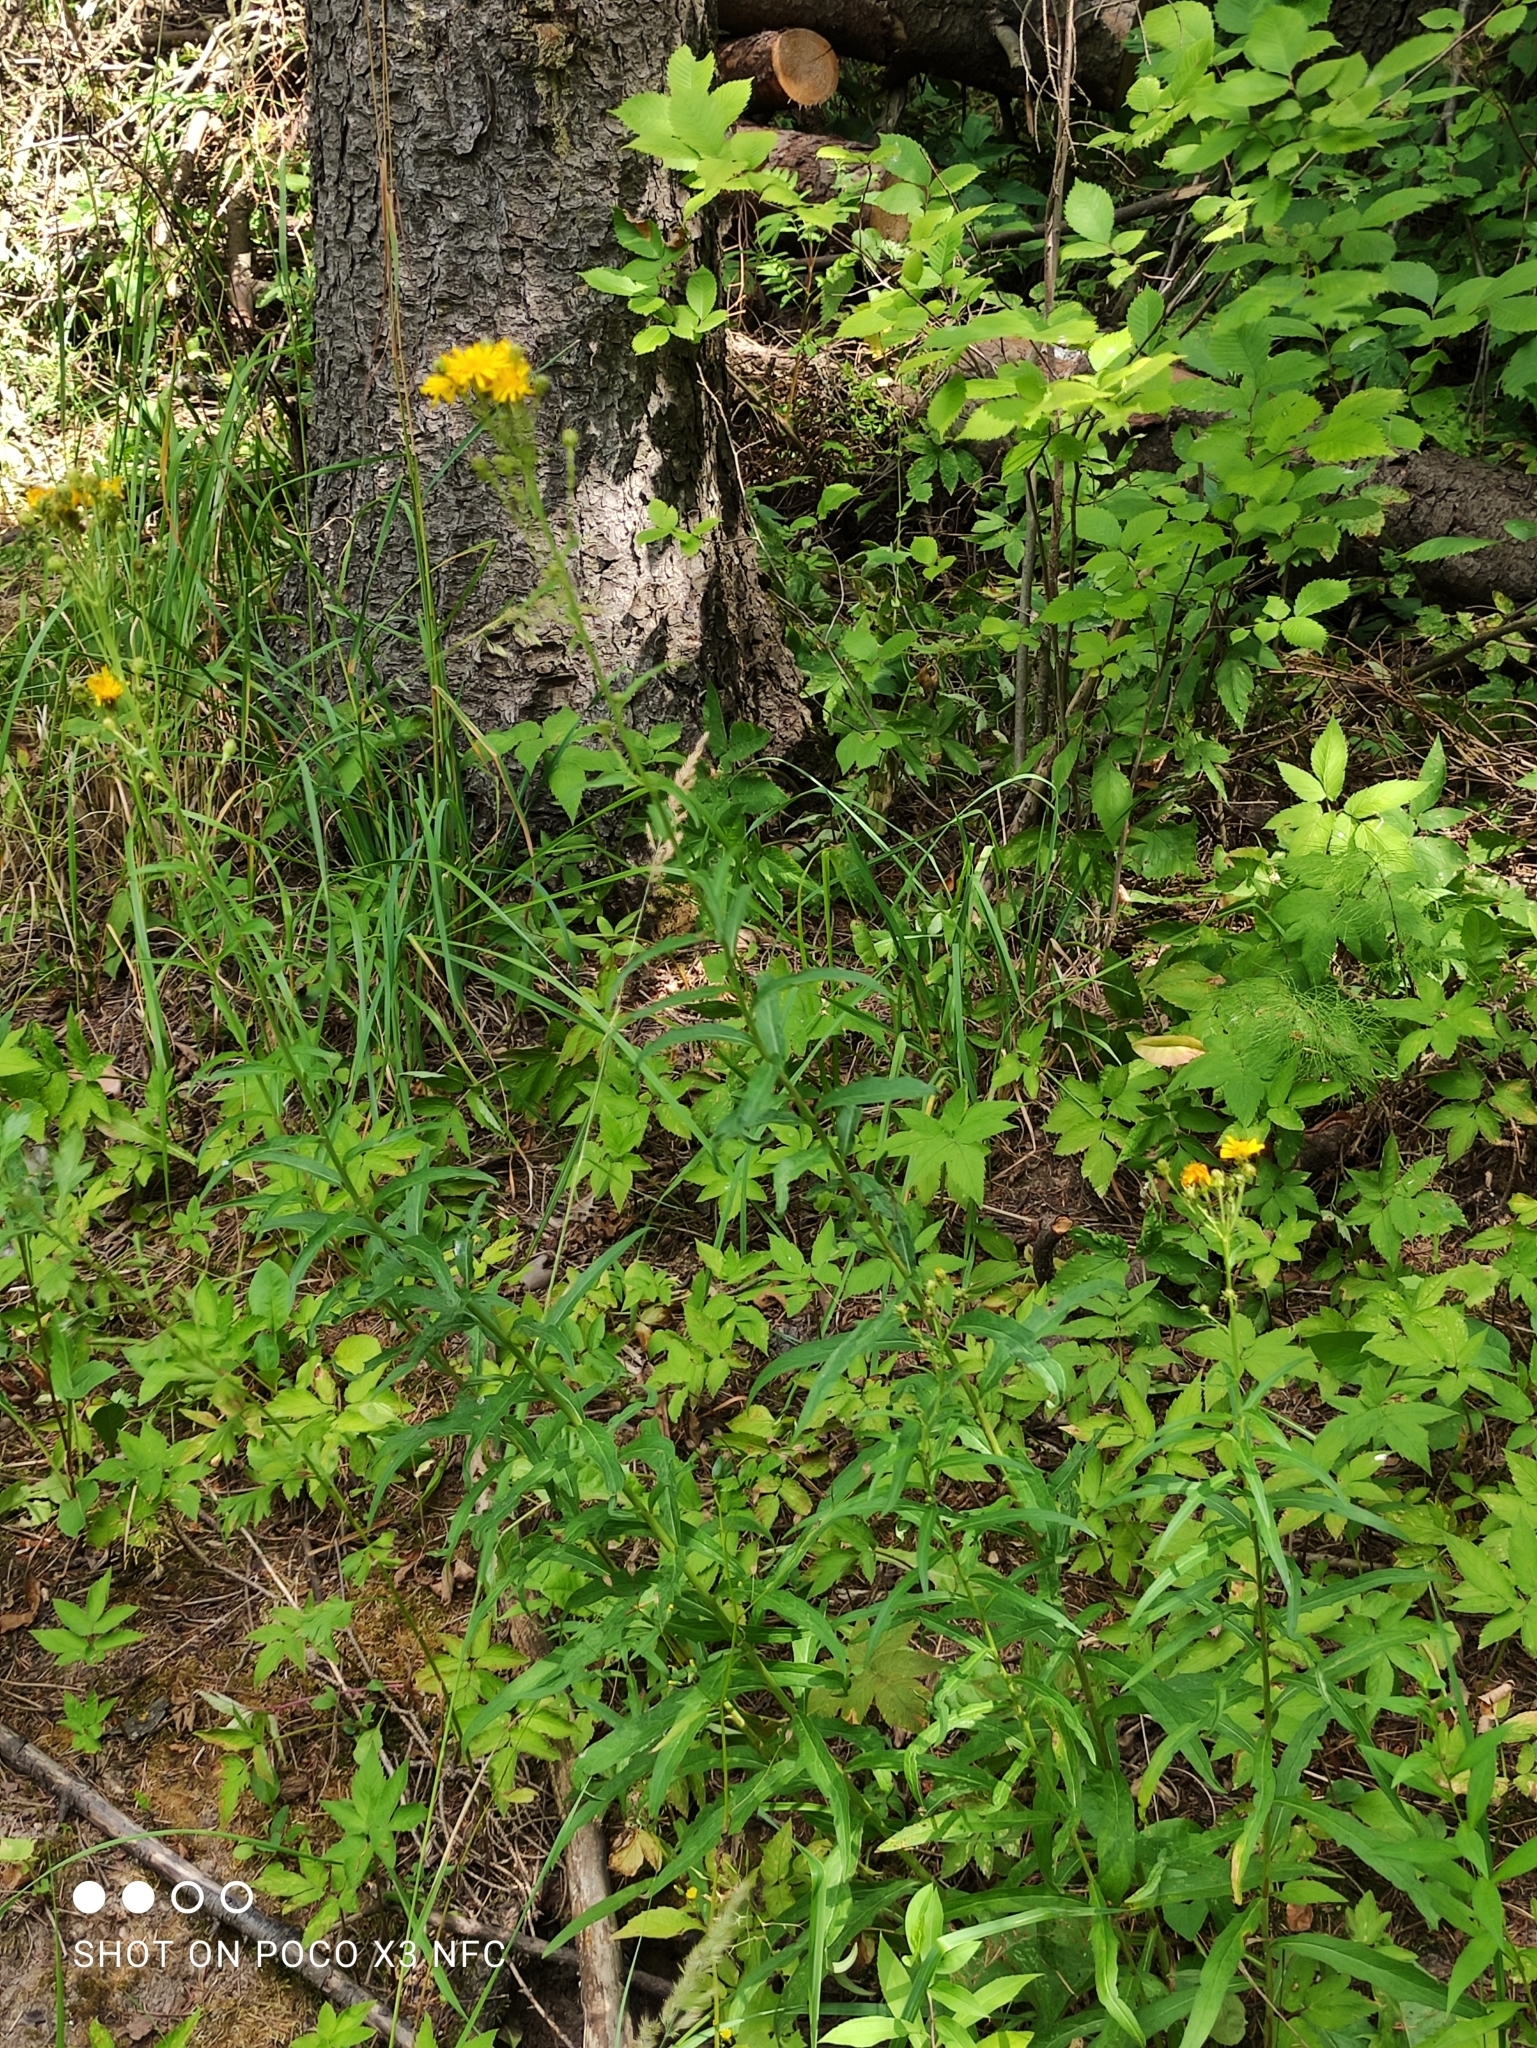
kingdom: Plantae
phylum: Tracheophyta
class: Magnoliopsida
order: Asterales
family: Asteraceae
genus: Hieracium
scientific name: Hieracium umbellatum
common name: Northern hawkweed
